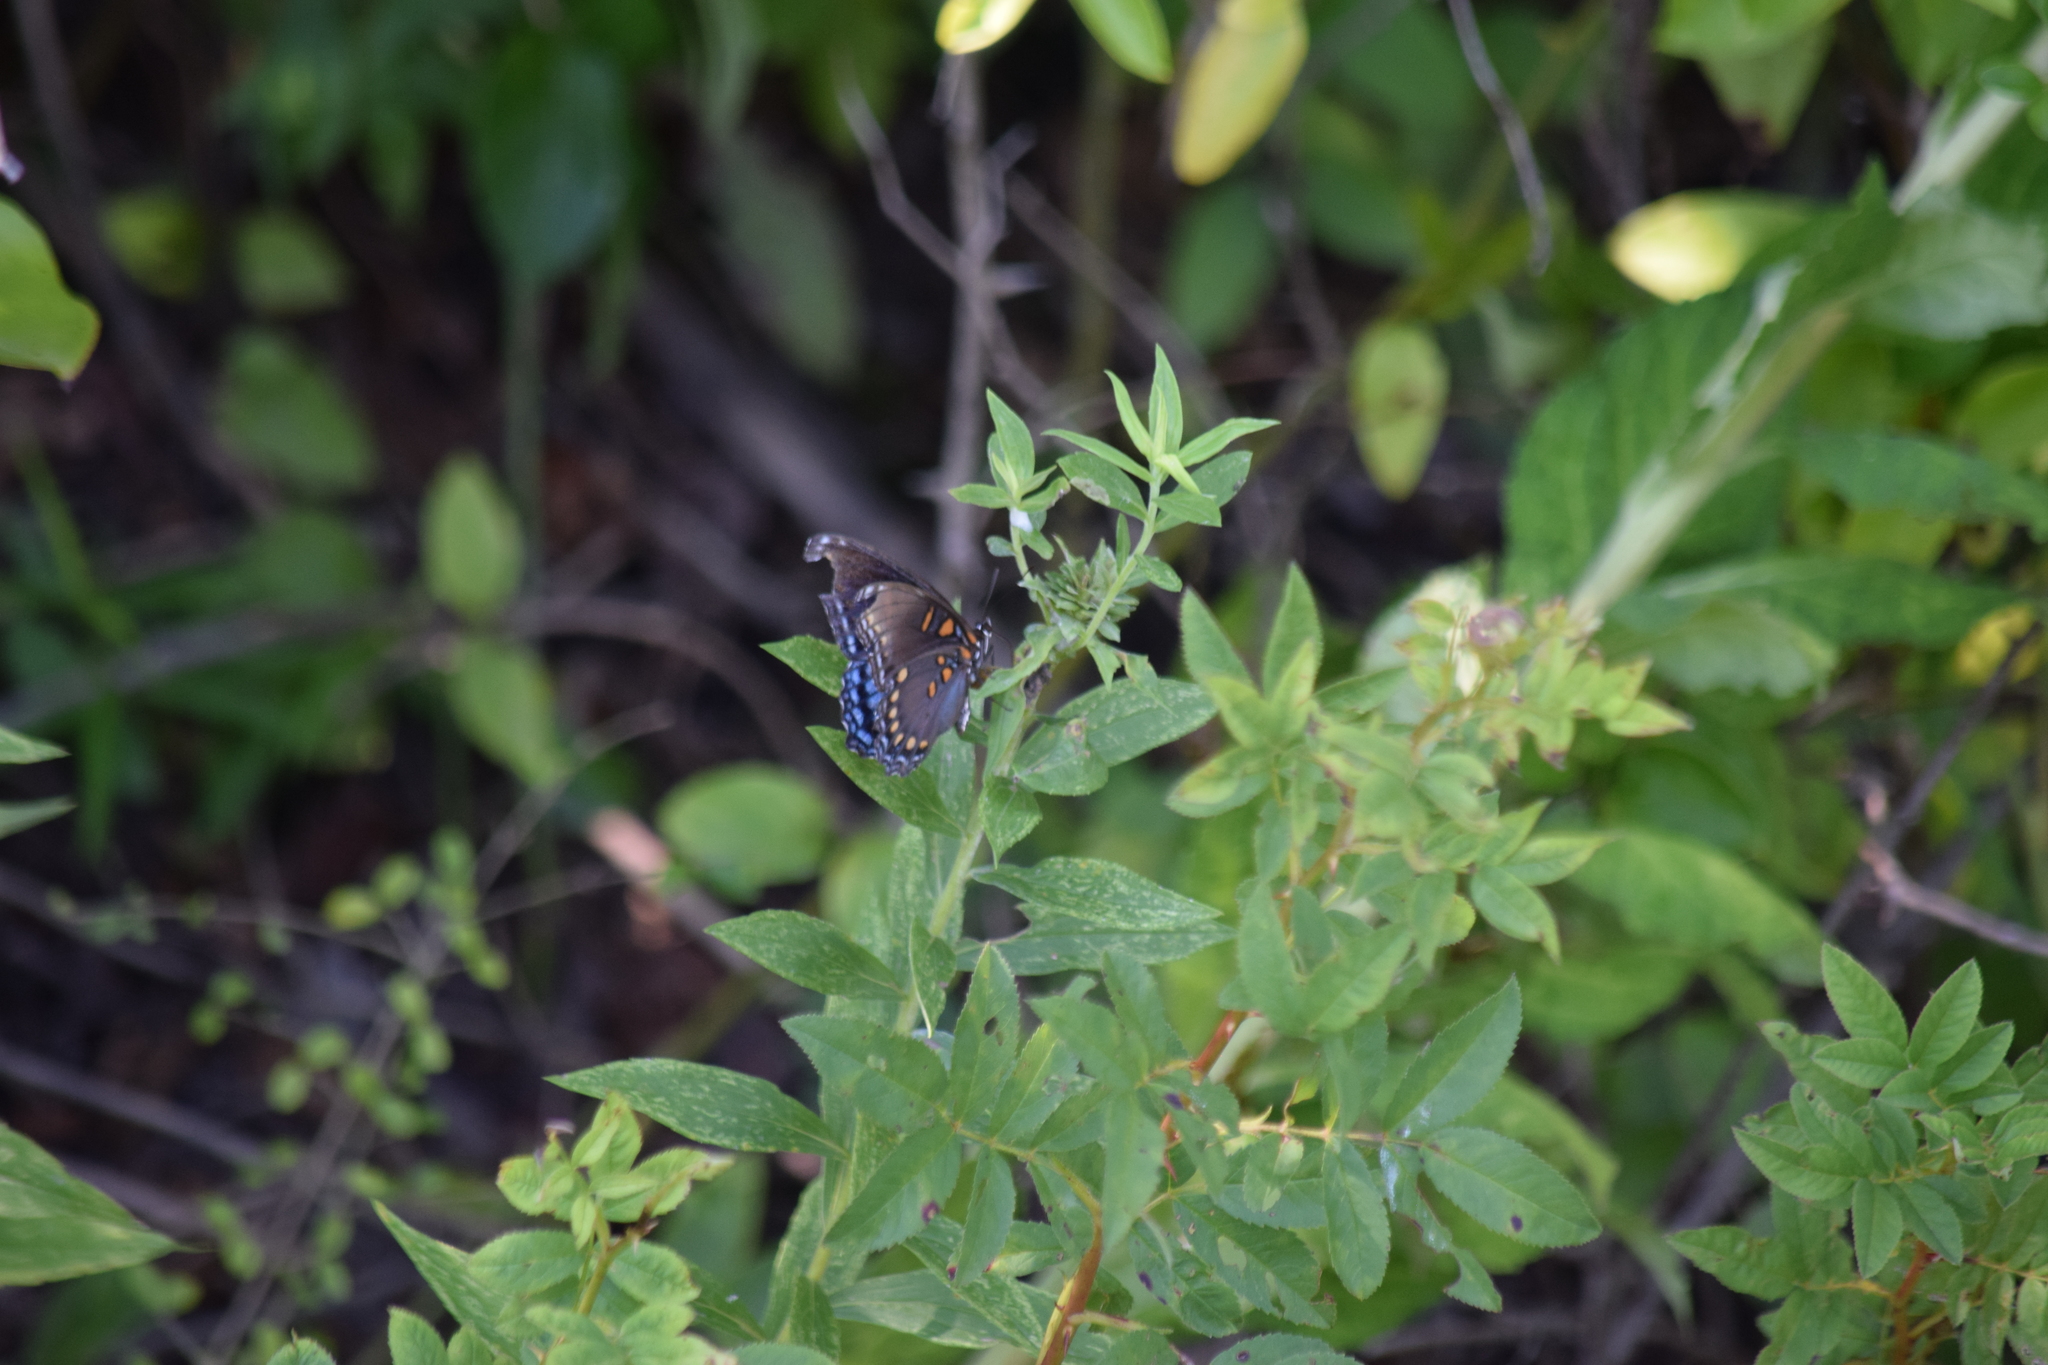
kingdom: Animalia
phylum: Arthropoda
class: Insecta
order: Lepidoptera
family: Nymphalidae
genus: Limenitis
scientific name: Limenitis astyanax
